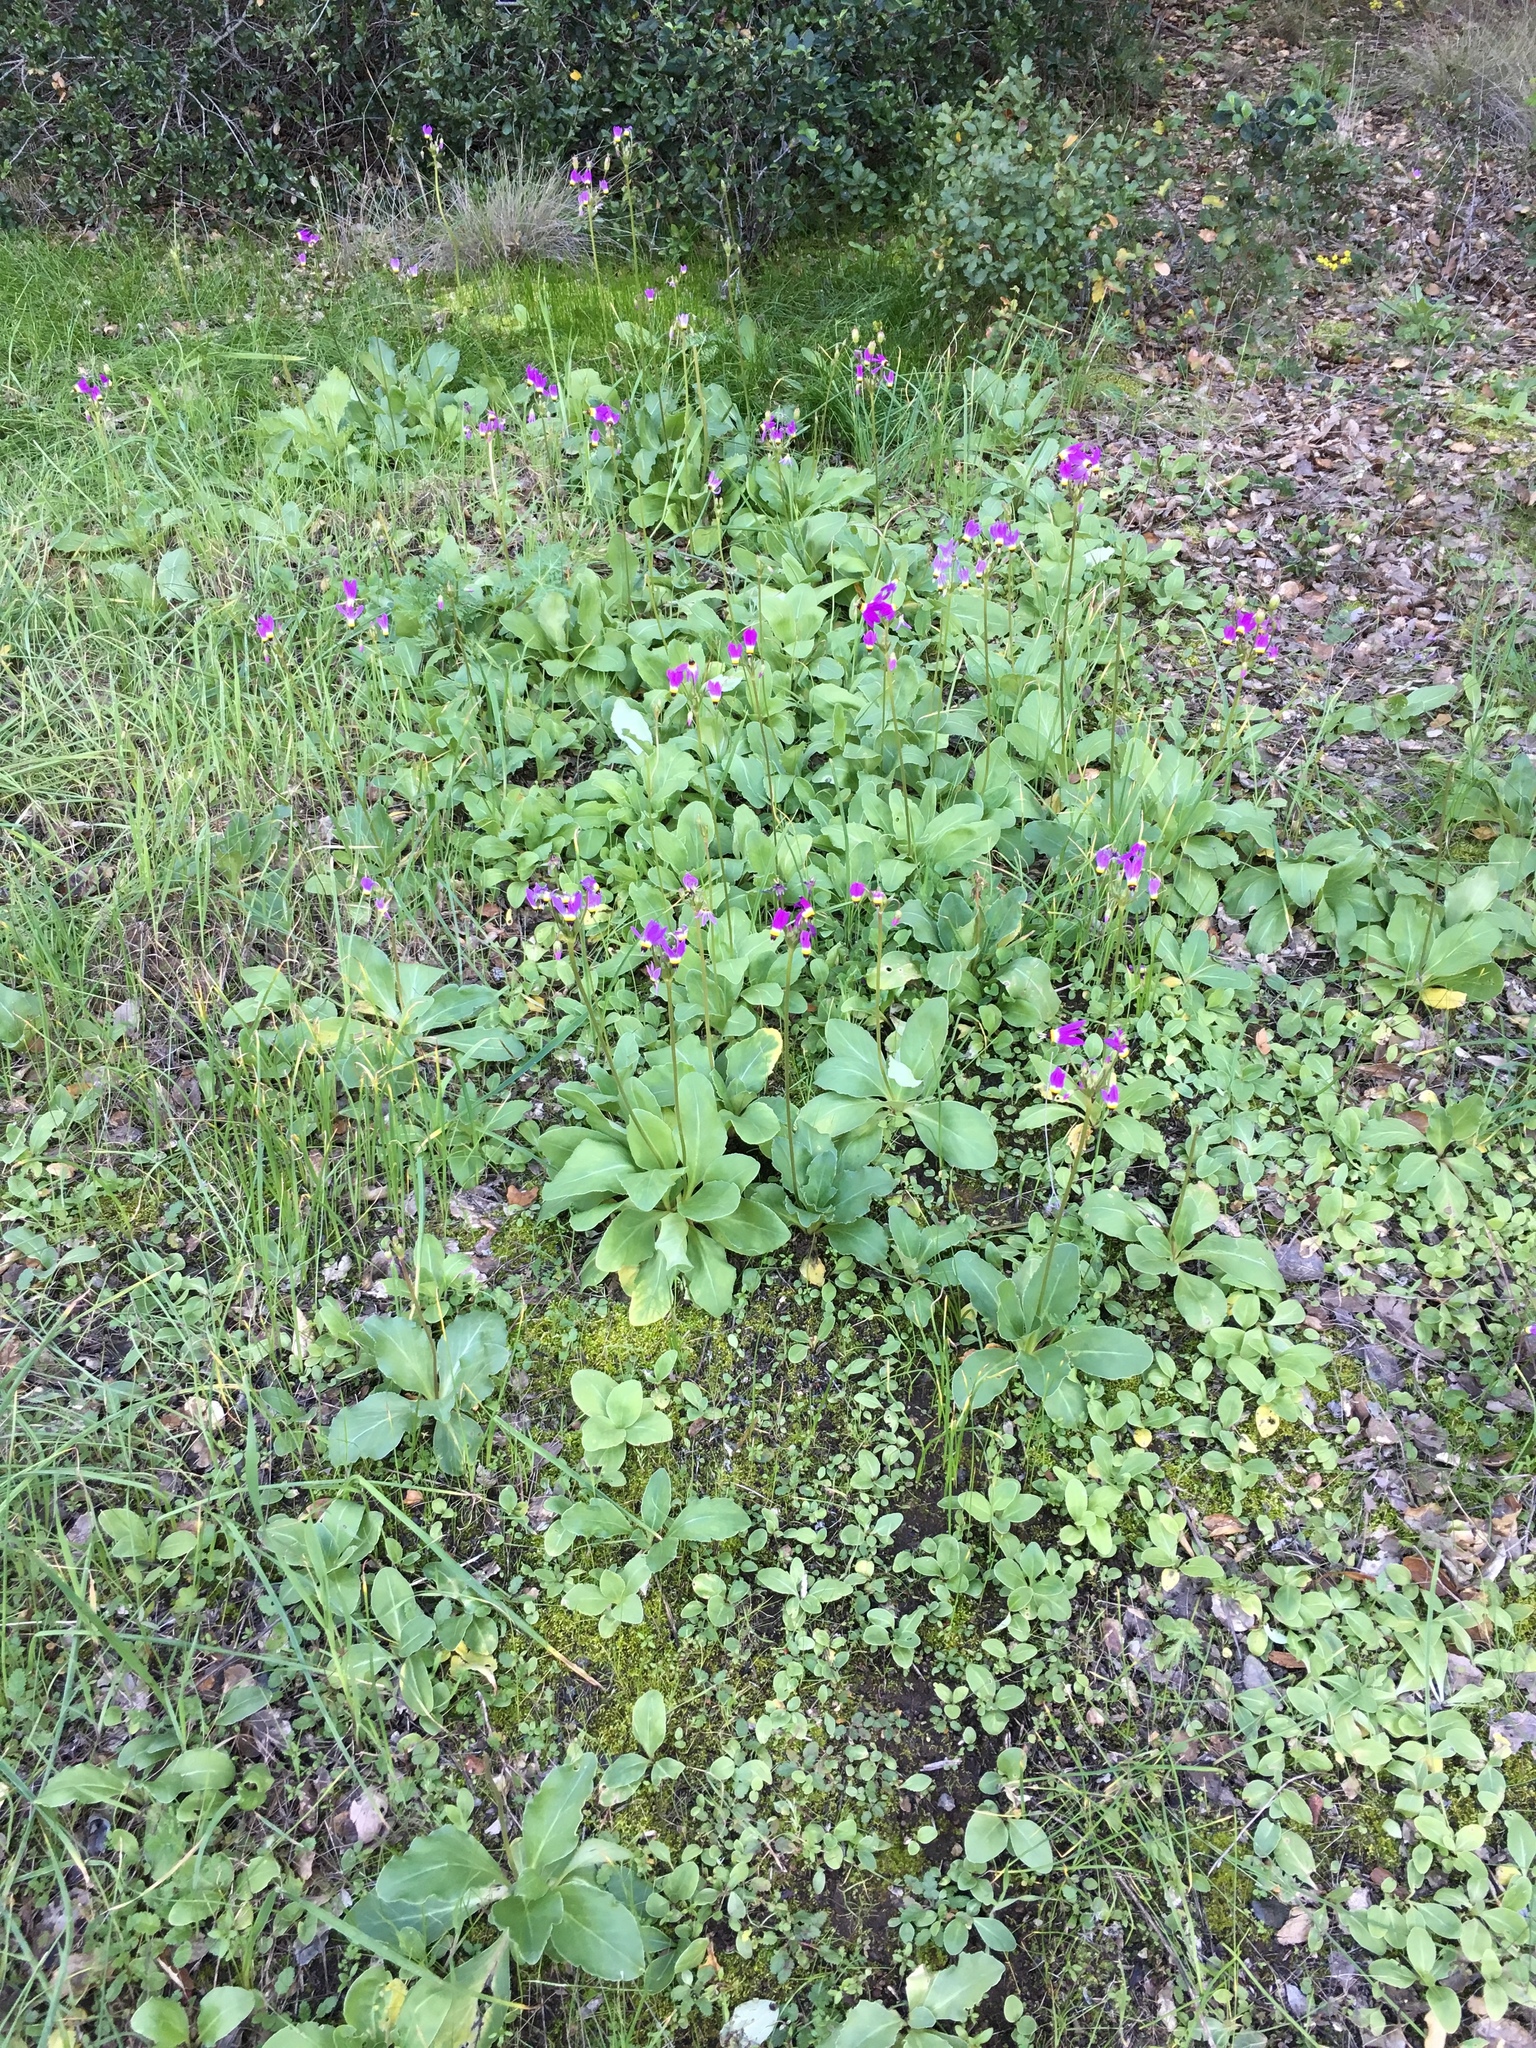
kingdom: Plantae
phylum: Tracheophyta
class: Magnoliopsida
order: Ericales
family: Primulaceae
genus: Dodecatheon
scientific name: Dodecatheon clevelandii
